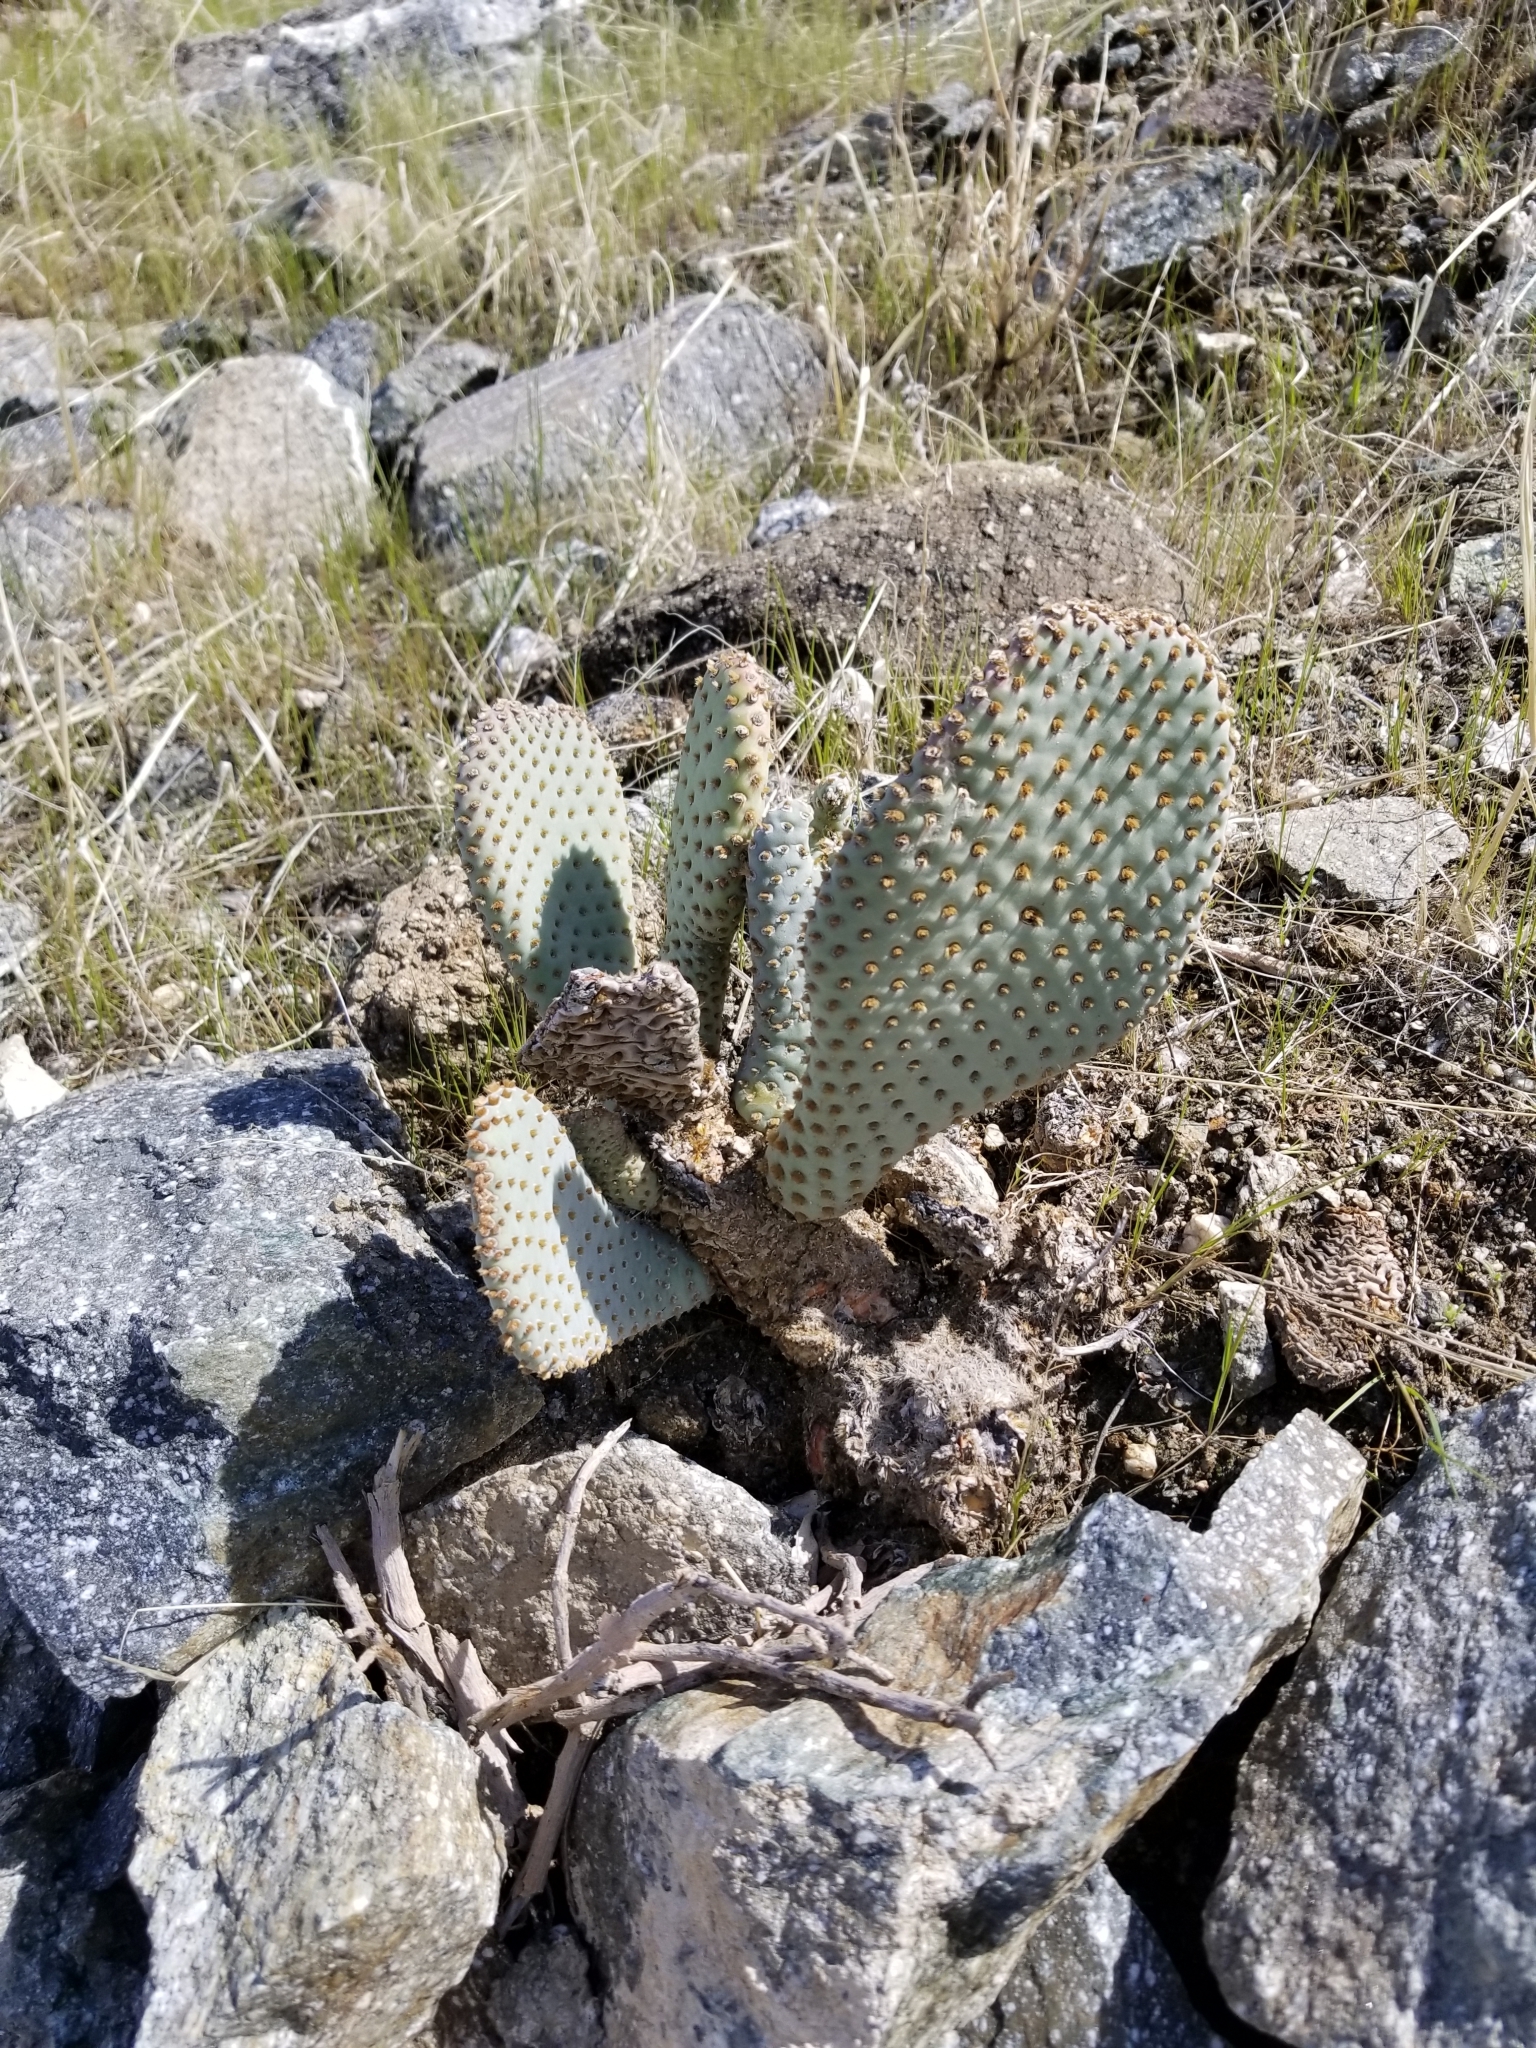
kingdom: Plantae
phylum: Tracheophyta
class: Magnoliopsida
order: Caryophyllales
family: Cactaceae
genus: Opuntia
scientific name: Opuntia basilaris
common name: Beavertail prickly-pear
